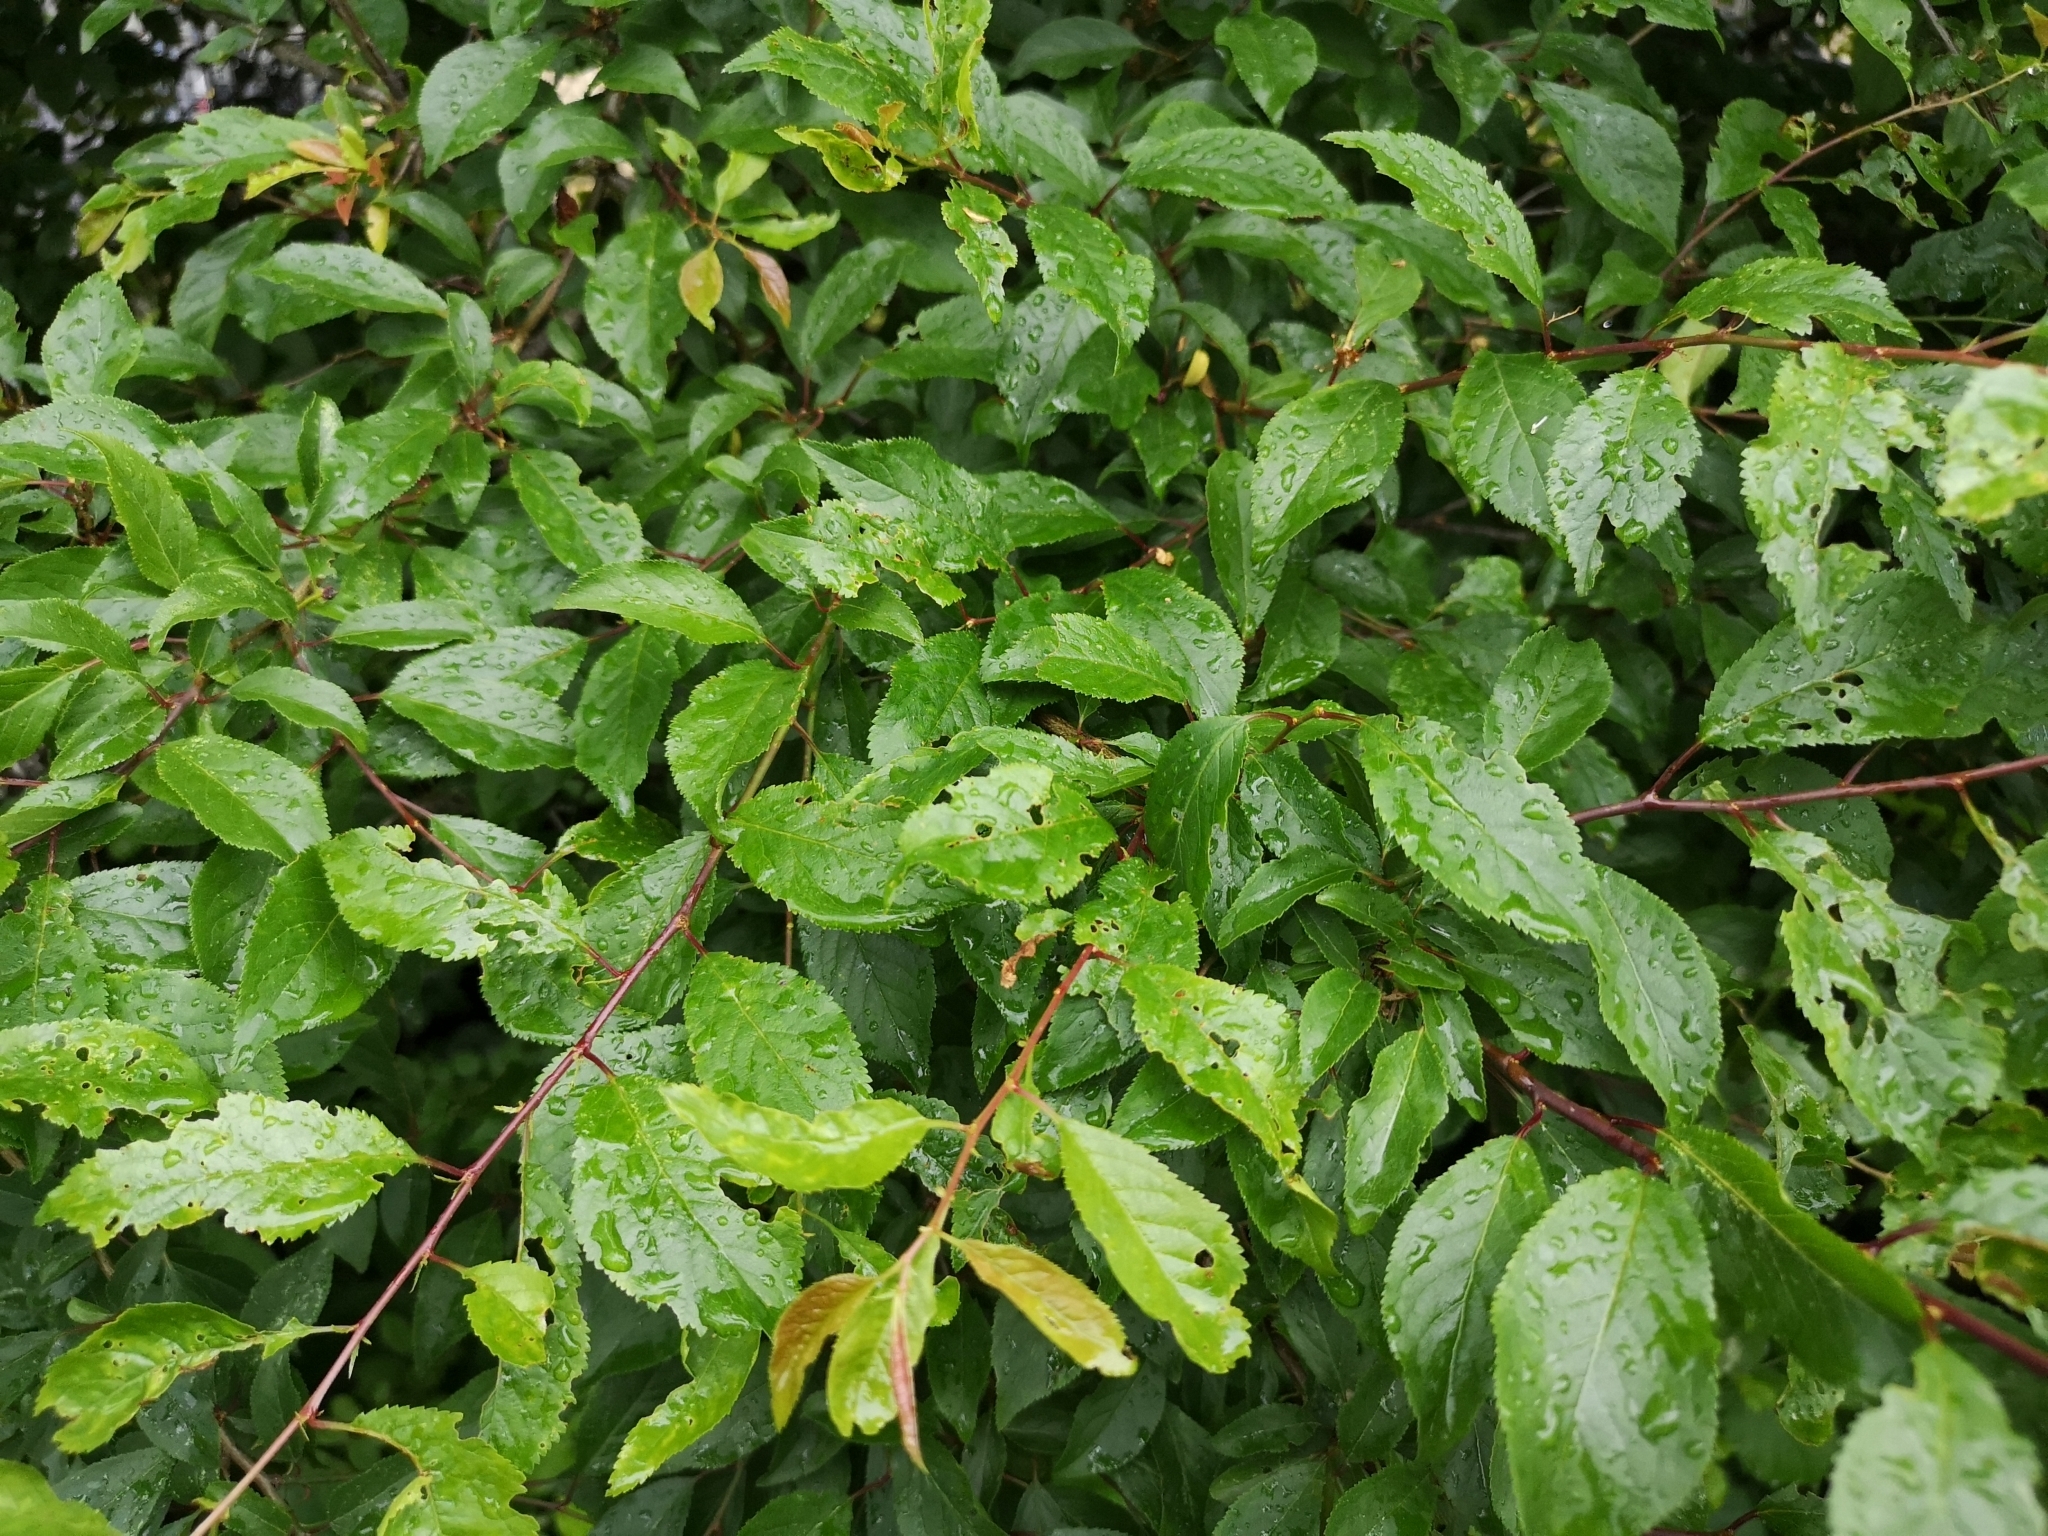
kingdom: Plantae
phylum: Tracheophyta
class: Magnoliopsida
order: Rosales
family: Rosaceae
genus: Prunus
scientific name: Prunus cerasifera
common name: Cherry plum
